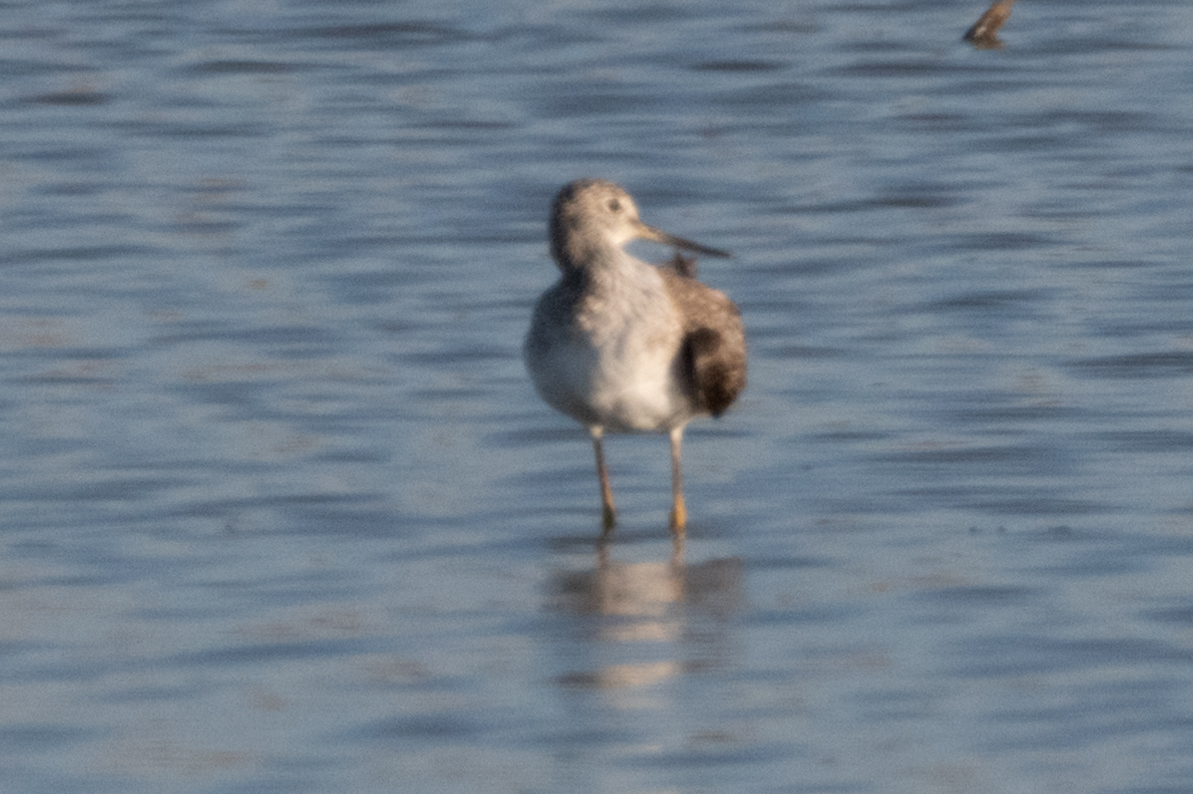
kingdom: Animalia
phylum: Chordata
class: Aves
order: Charadriiformes
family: Scolopacidae
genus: Tringa
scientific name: Tringa melanoleuca
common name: Greater yellowlegs
